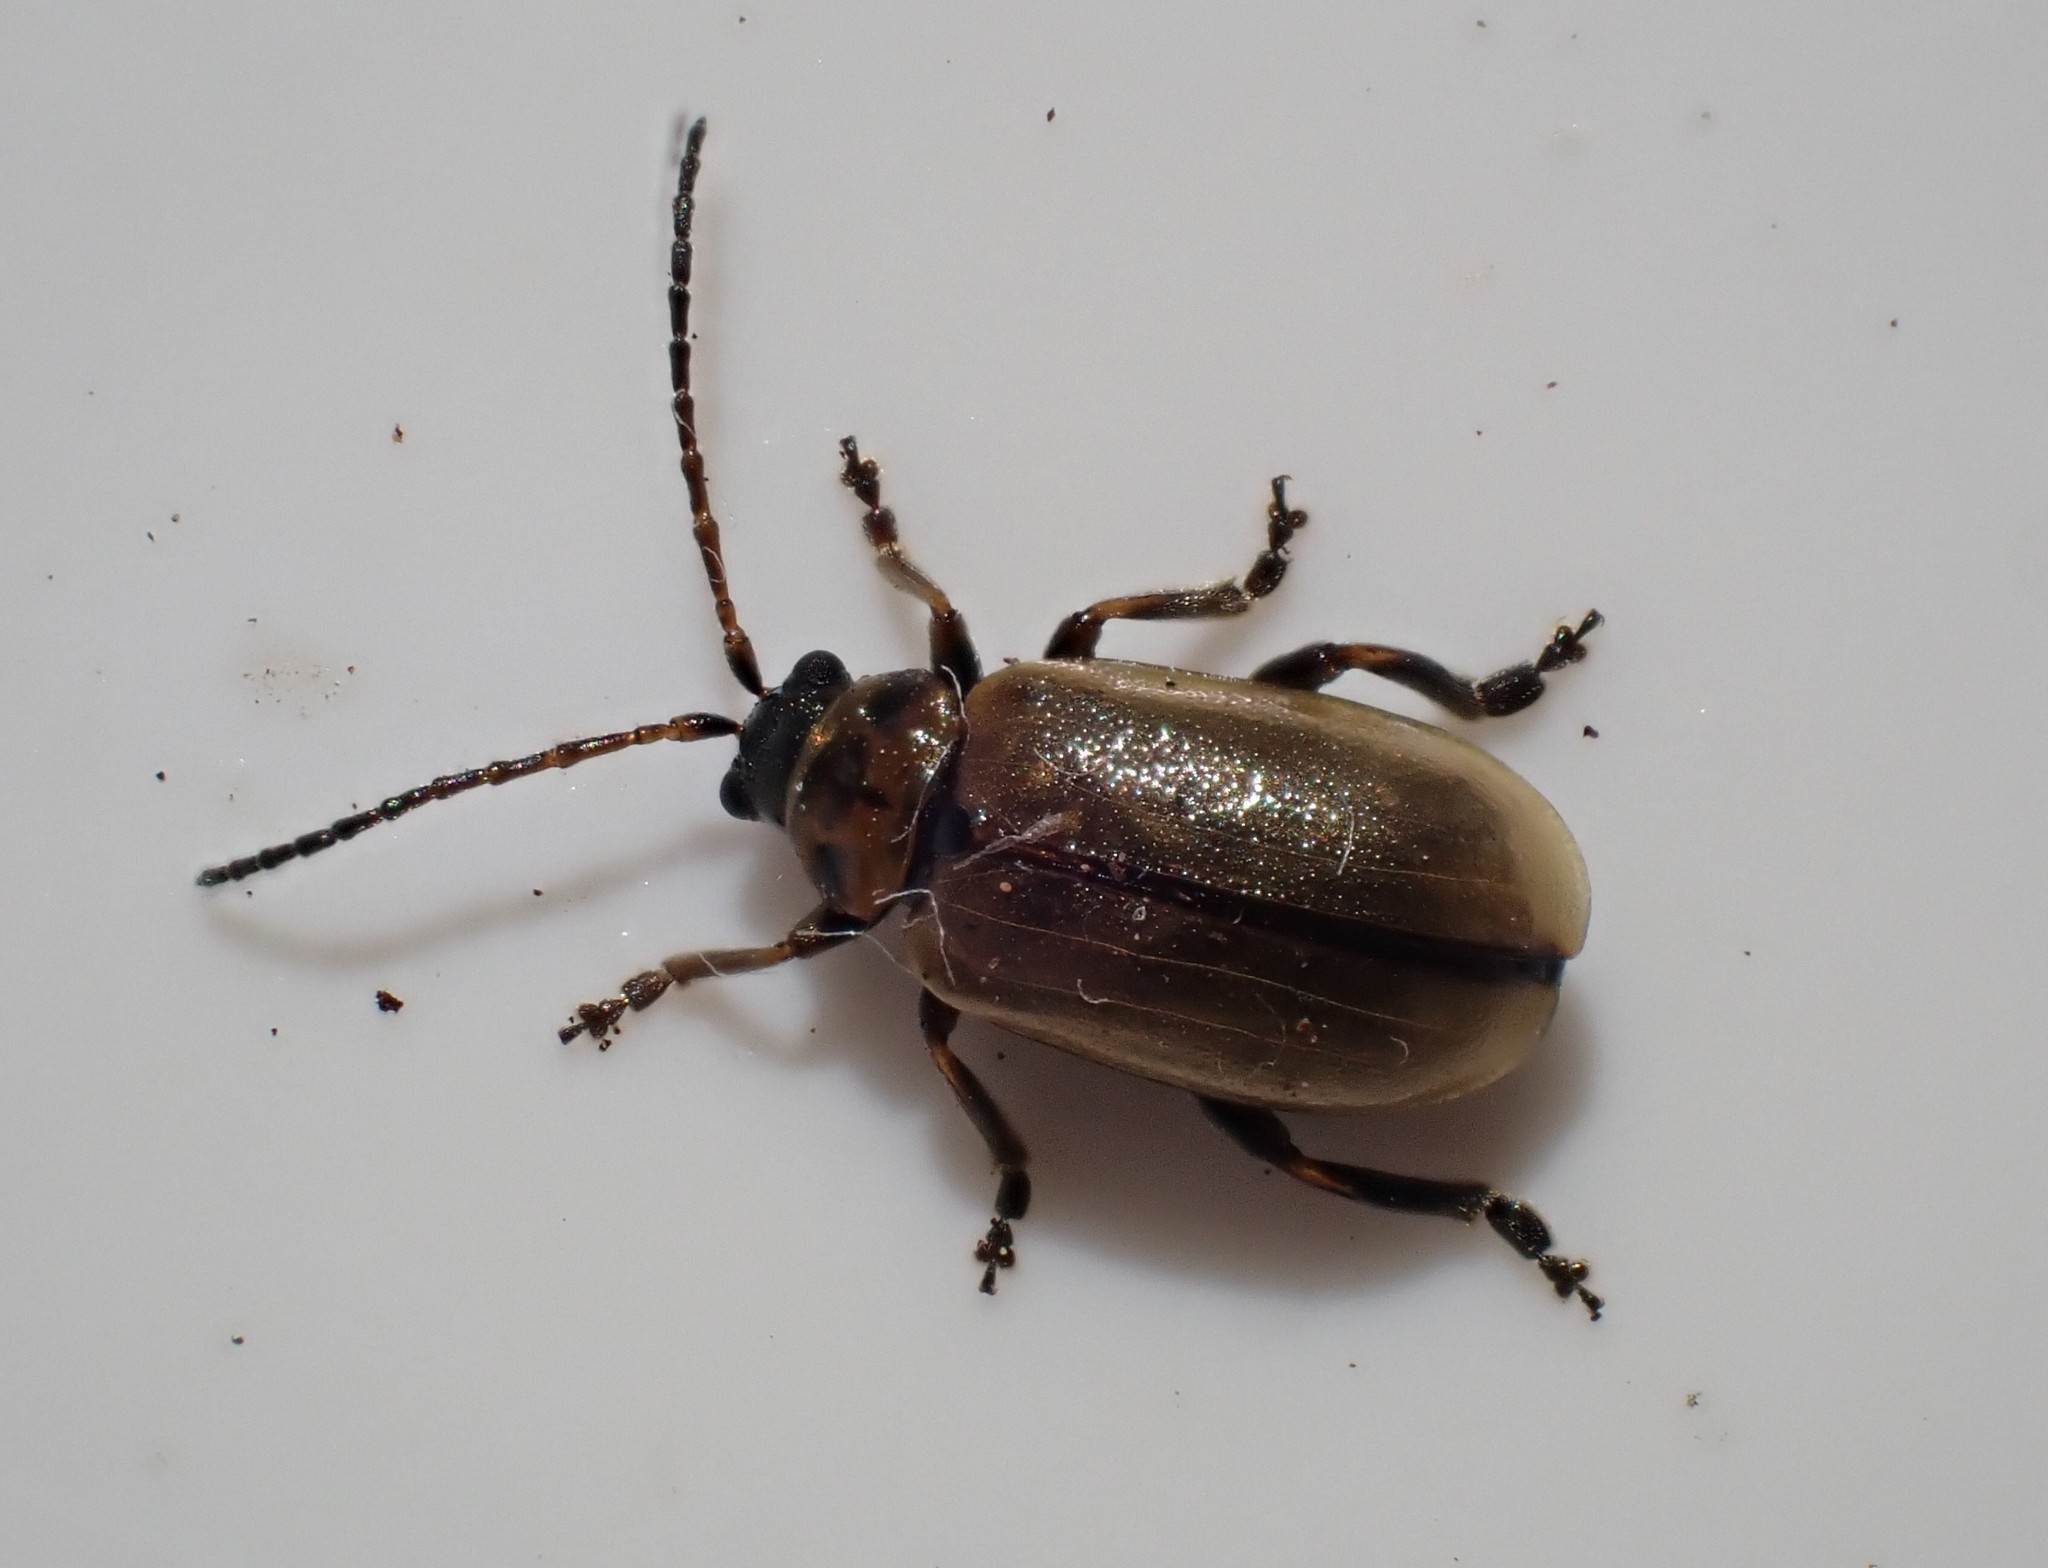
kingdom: Animalia
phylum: Arthropoda
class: Insecta
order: Coleoptera
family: Chrysomelidae
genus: Lochmaea
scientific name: Lochmaea suturalis
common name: Heather beetle
